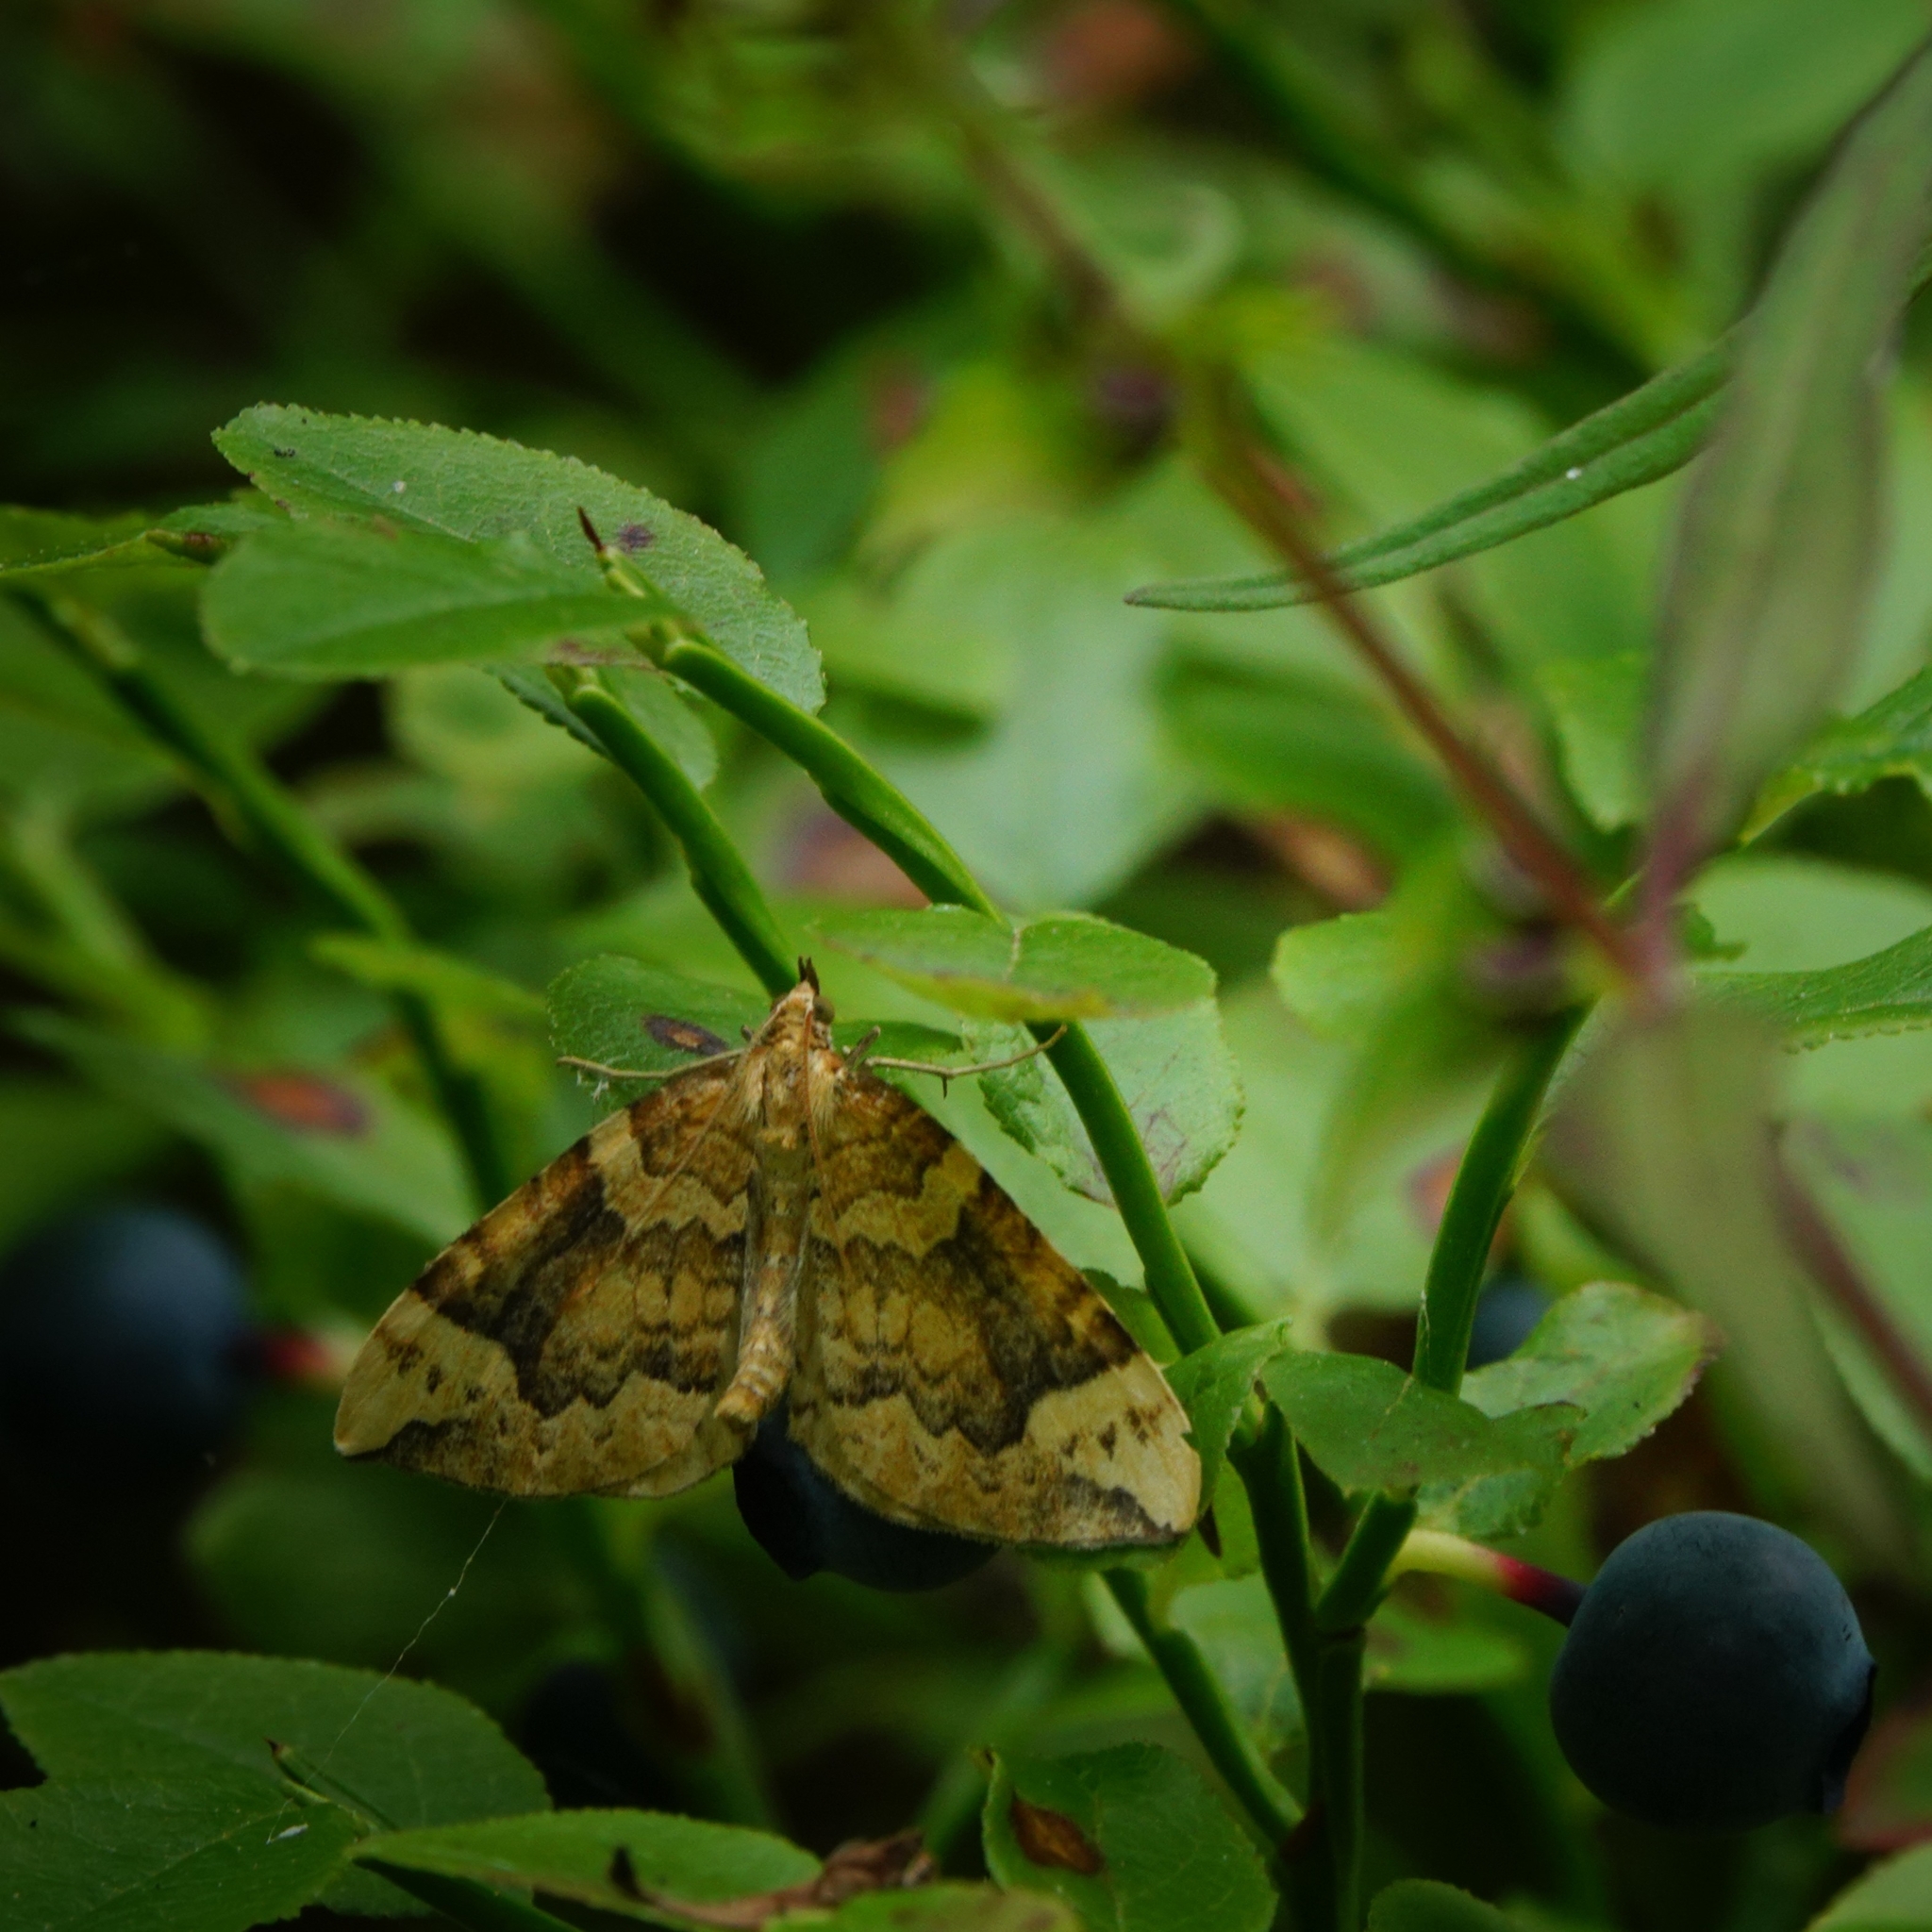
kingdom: Animalia
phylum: Arthropoda
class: Insecta
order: Lepidoptera
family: Geometridae
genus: Eulithis
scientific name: Eulithis populata
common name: Northern spinach
